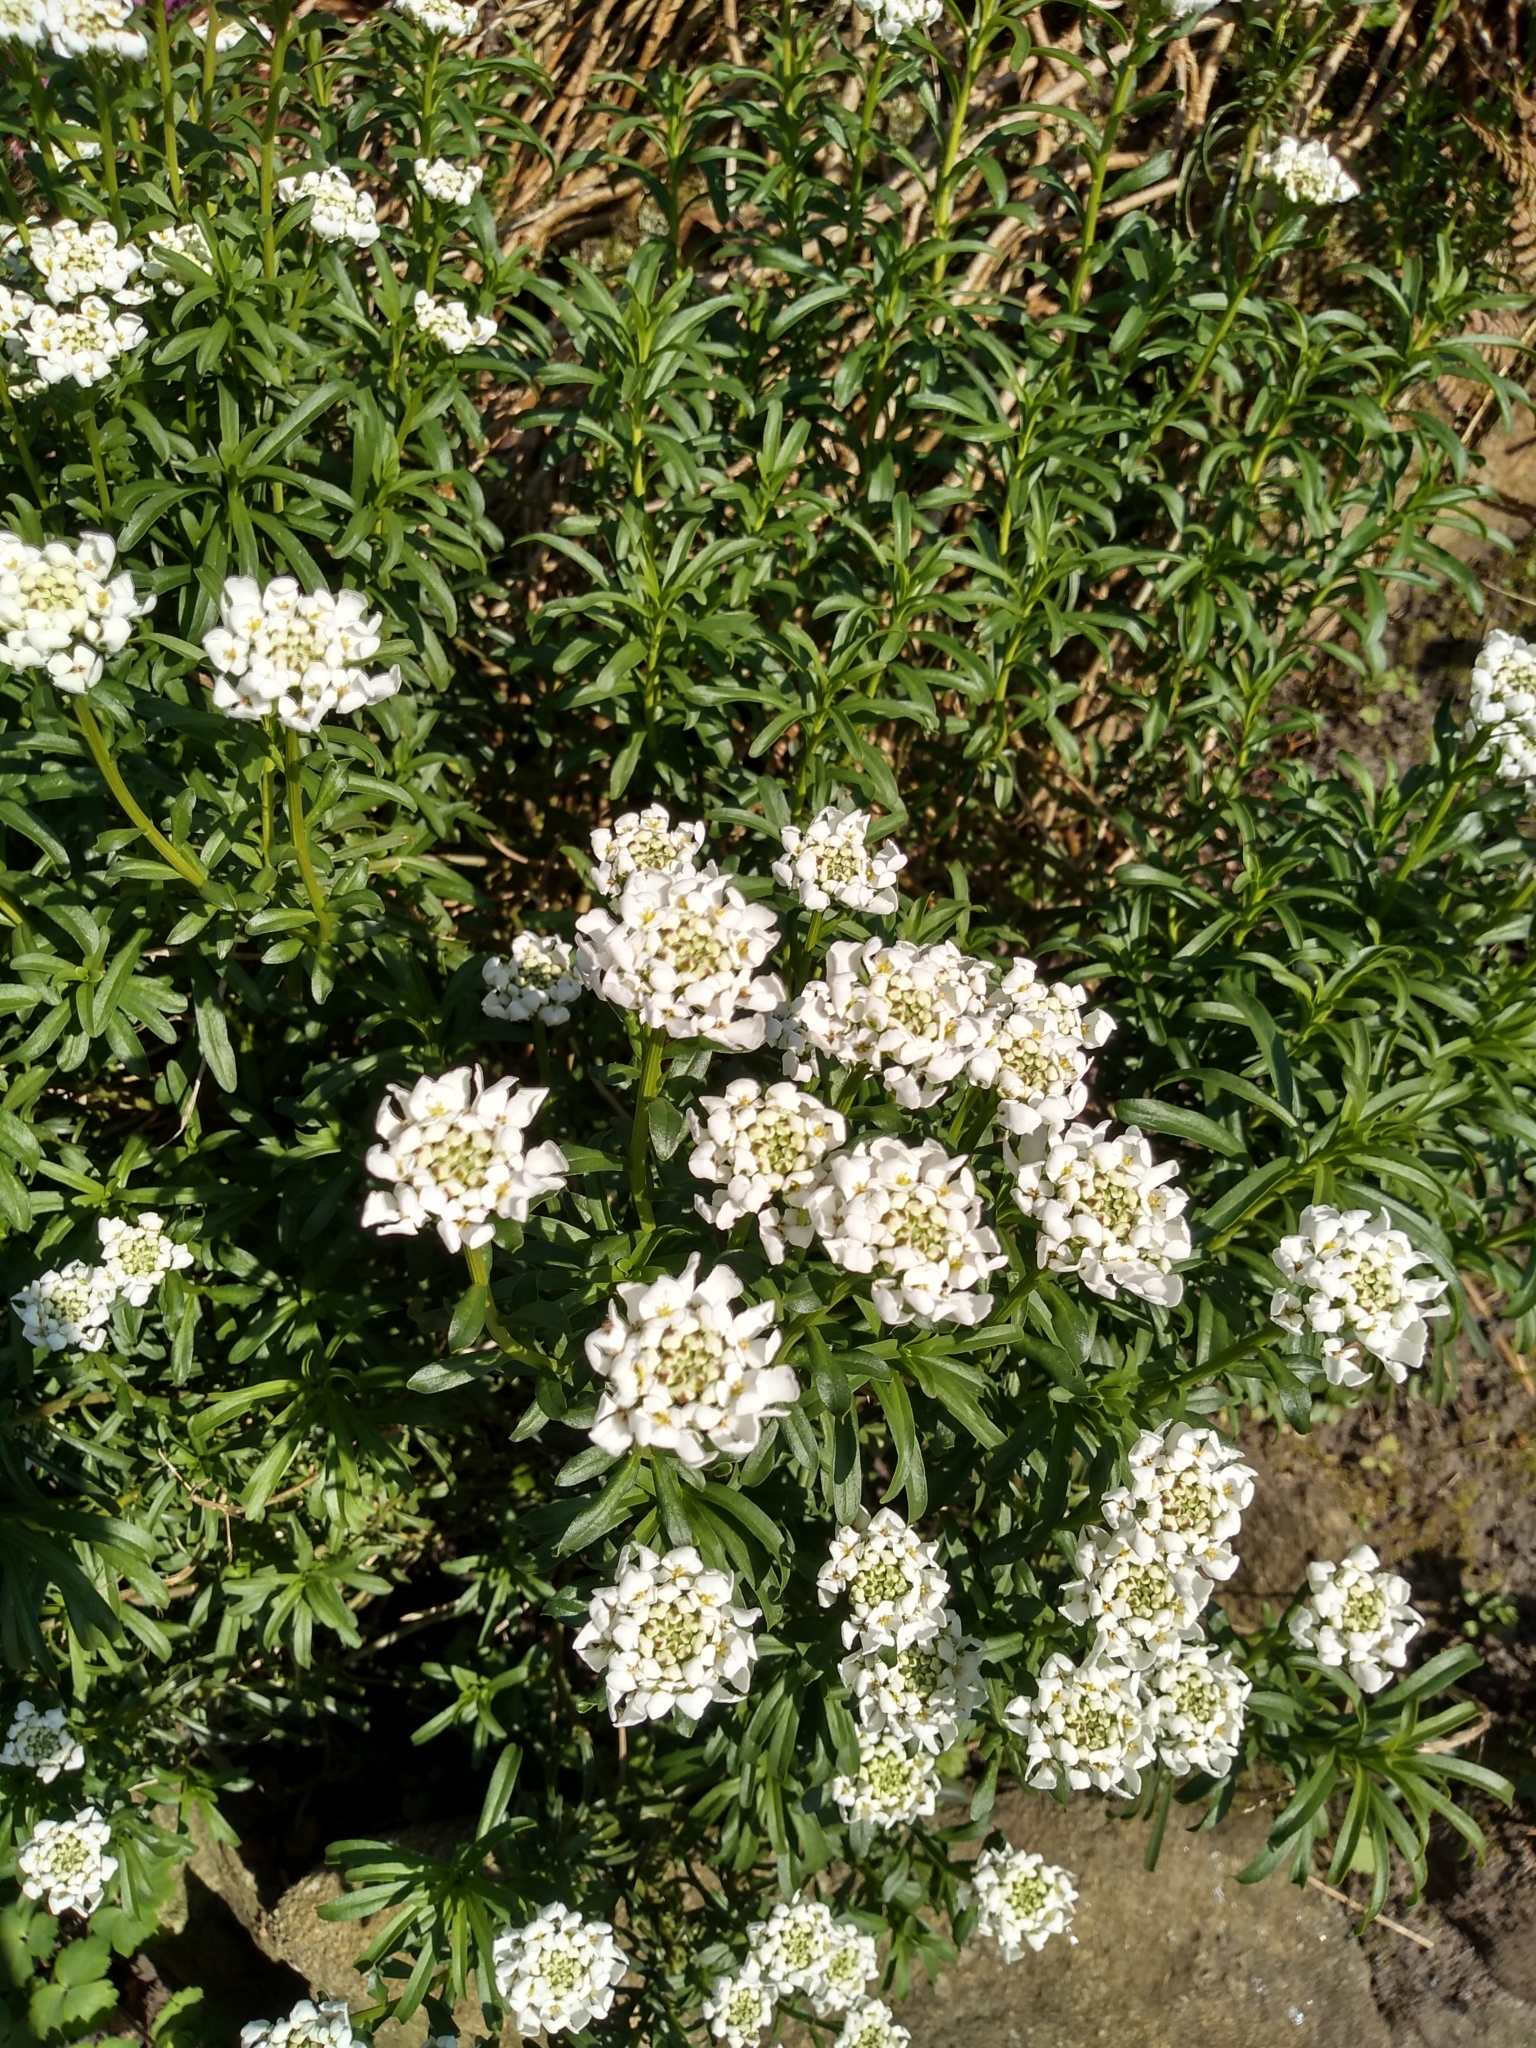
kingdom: Plantae
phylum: Tracheophyta
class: Magnoliopsida
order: Brassicales
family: Brassicaceae
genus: Iberis
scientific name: Iberis sempervirens
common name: Evergreen candytuft
